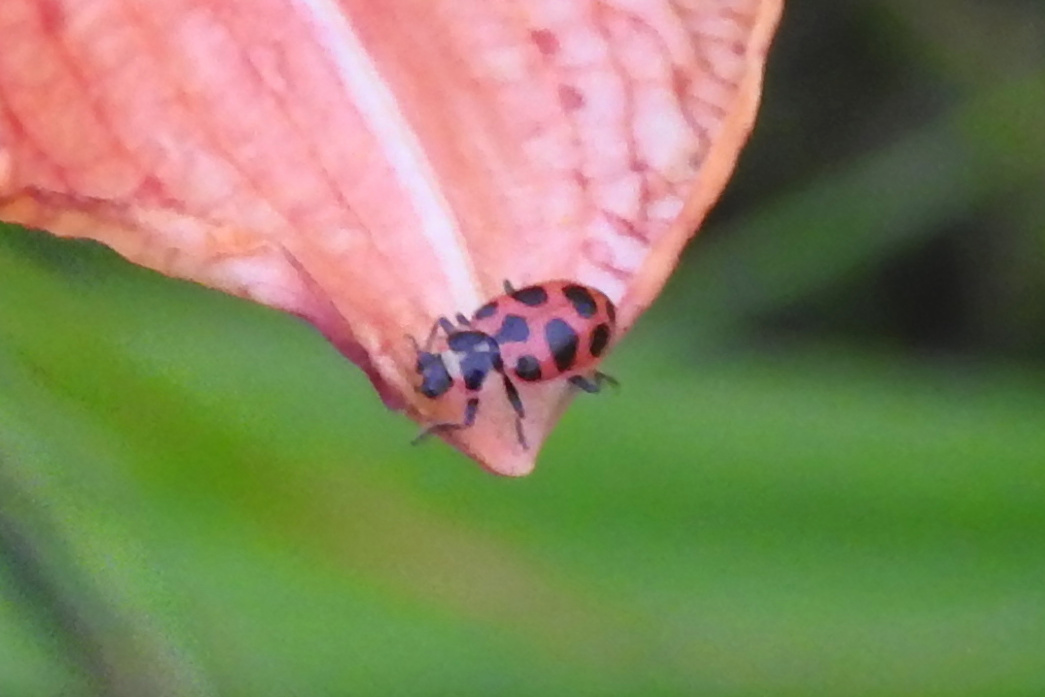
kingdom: Animalia
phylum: Arthropoda
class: Insecta
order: Coleoptera
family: Coccinellidae
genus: Coleomegilla
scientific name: Coleomegilla maculata
